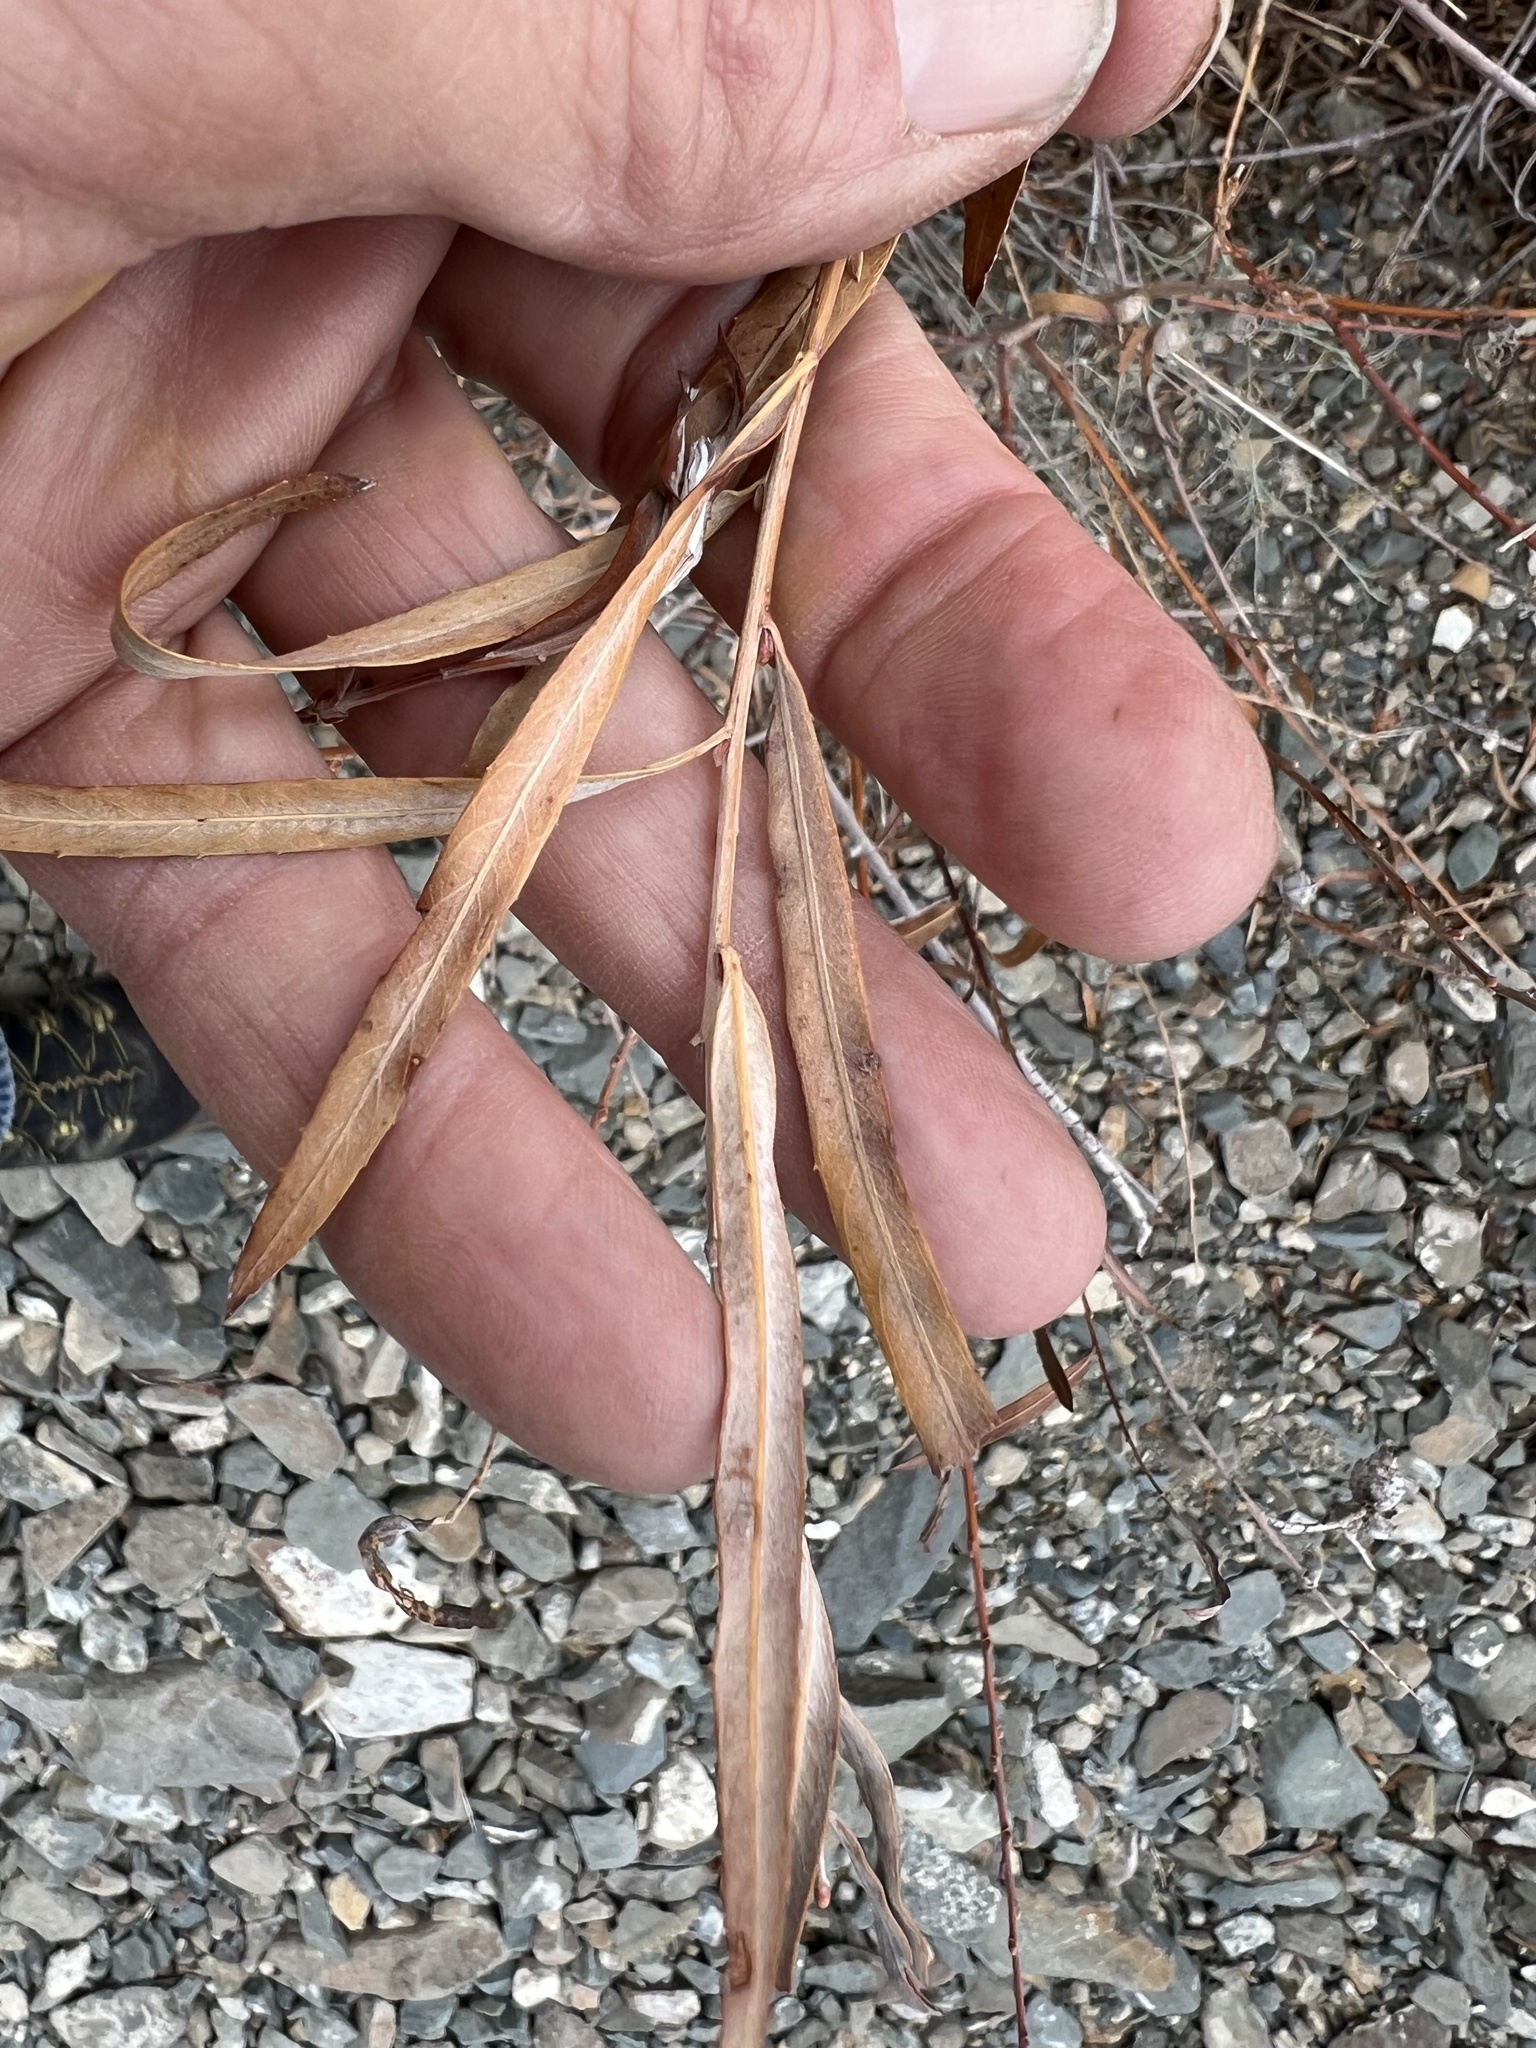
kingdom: Plantae
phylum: Tracheophyta
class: Magnoliopsida
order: Malpighiales
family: Salicaceae
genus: Salix
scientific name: Salix exigua
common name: Coyote willow
